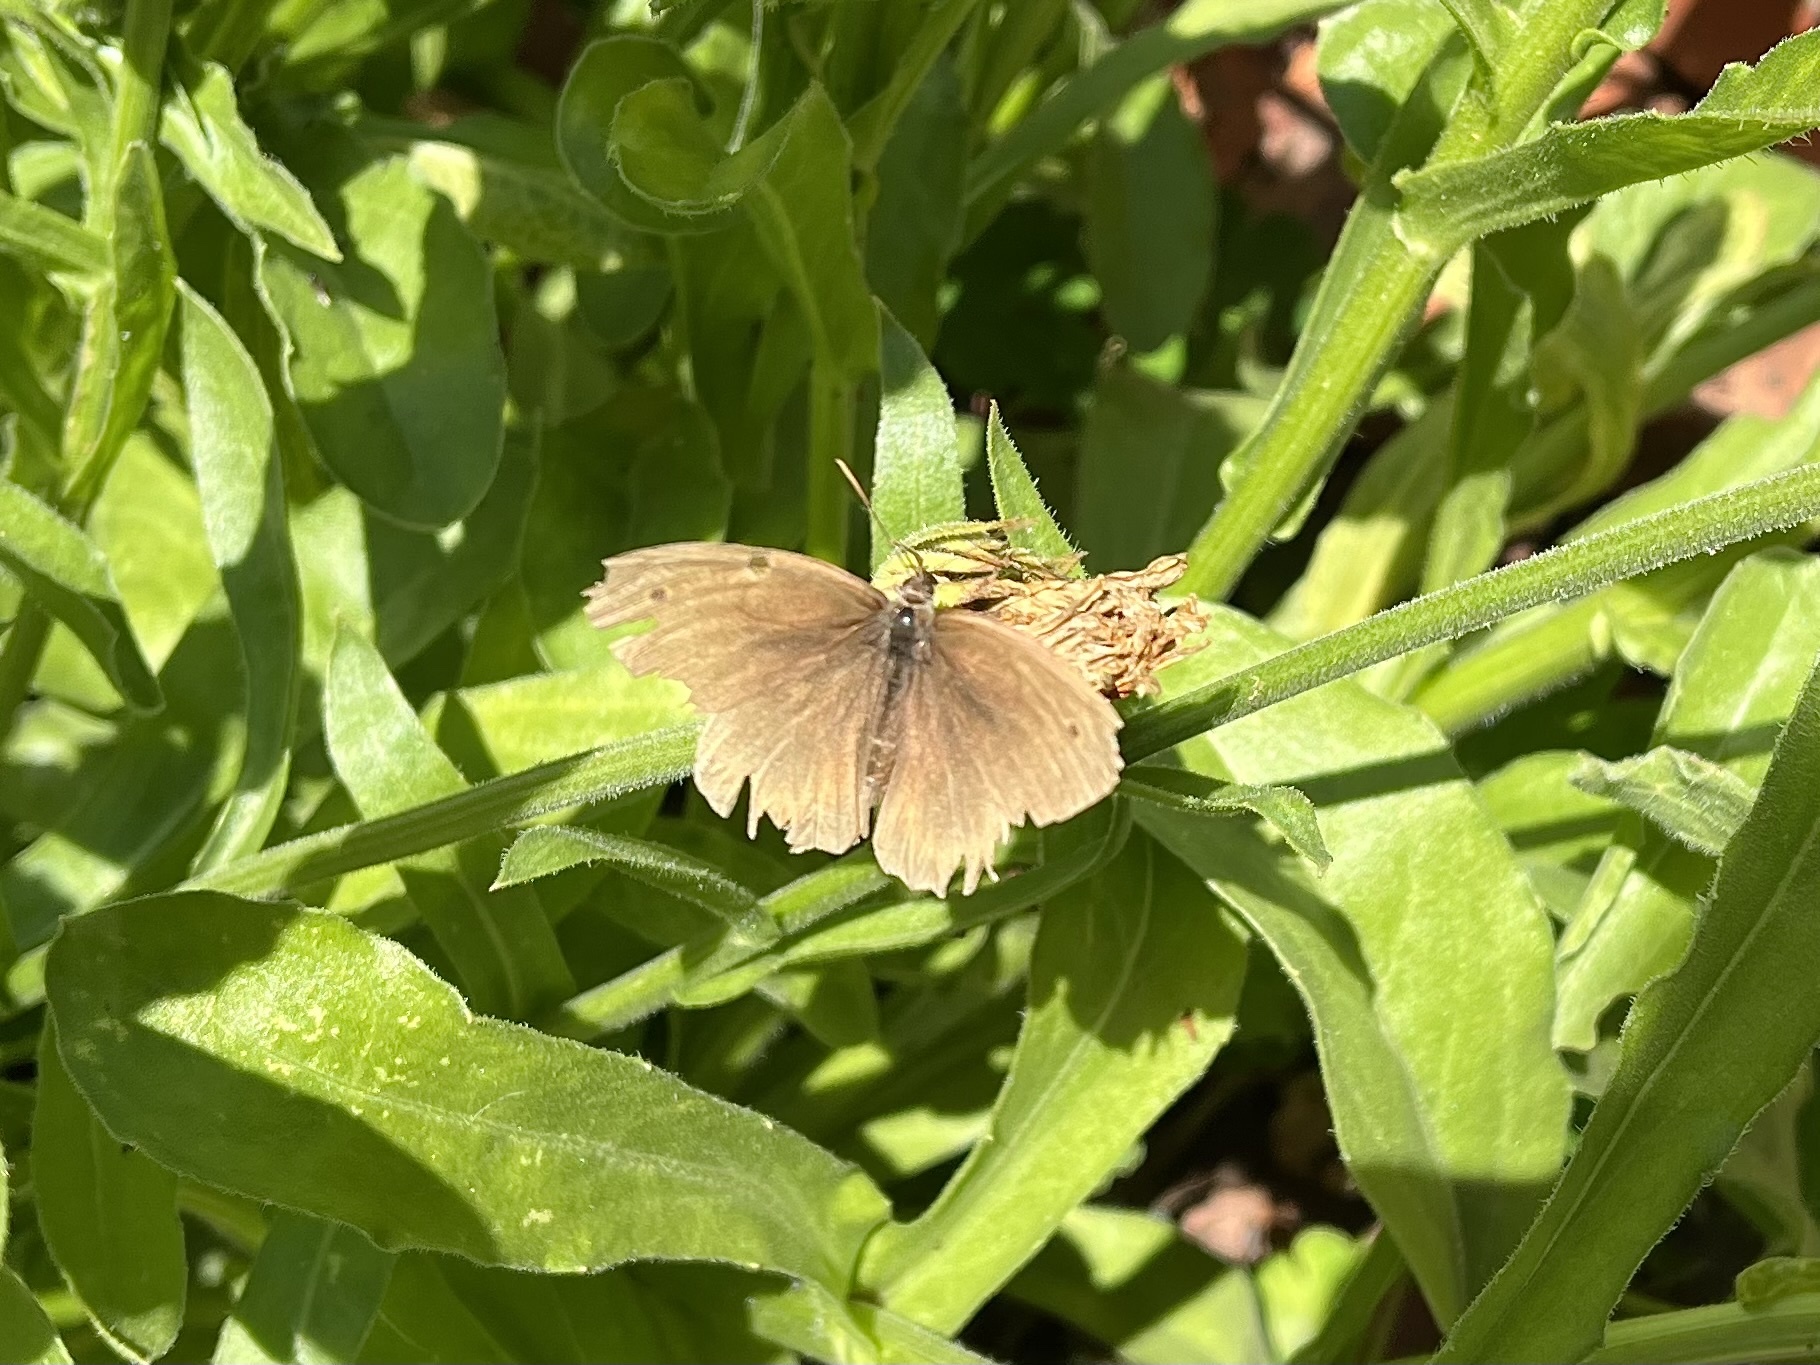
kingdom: Animalia
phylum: Arthropoda
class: Insecta
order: Lepidoptera
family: Nymphalidae
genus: Maniola
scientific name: Maniola jurtina
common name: Meadow brown
